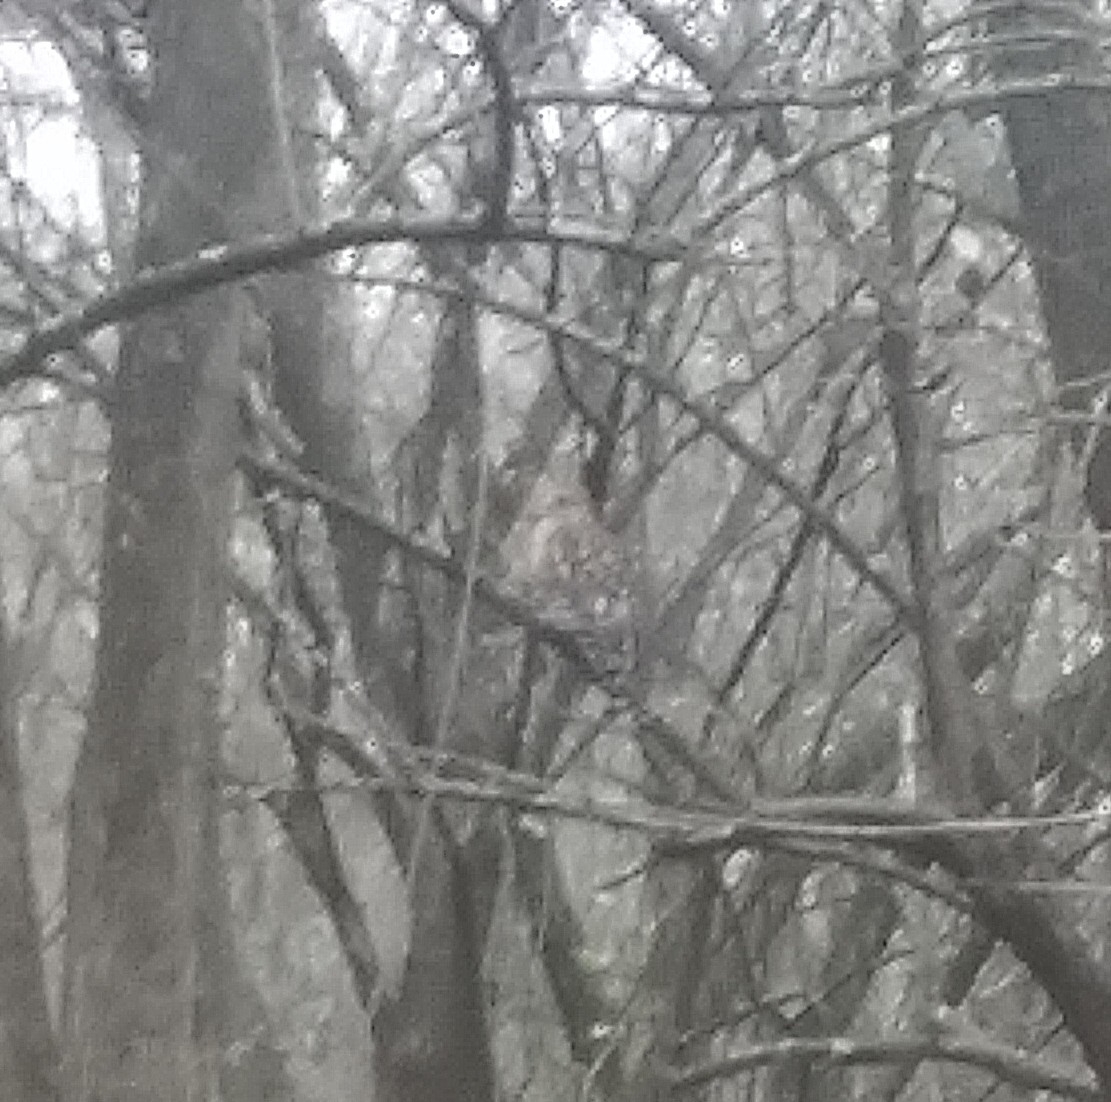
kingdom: Animalia
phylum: Chordata
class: Aves
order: Accipitriformes
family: Accipitridae
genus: Buteo
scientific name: Buteo lineatus
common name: Red-shouldered hawk
